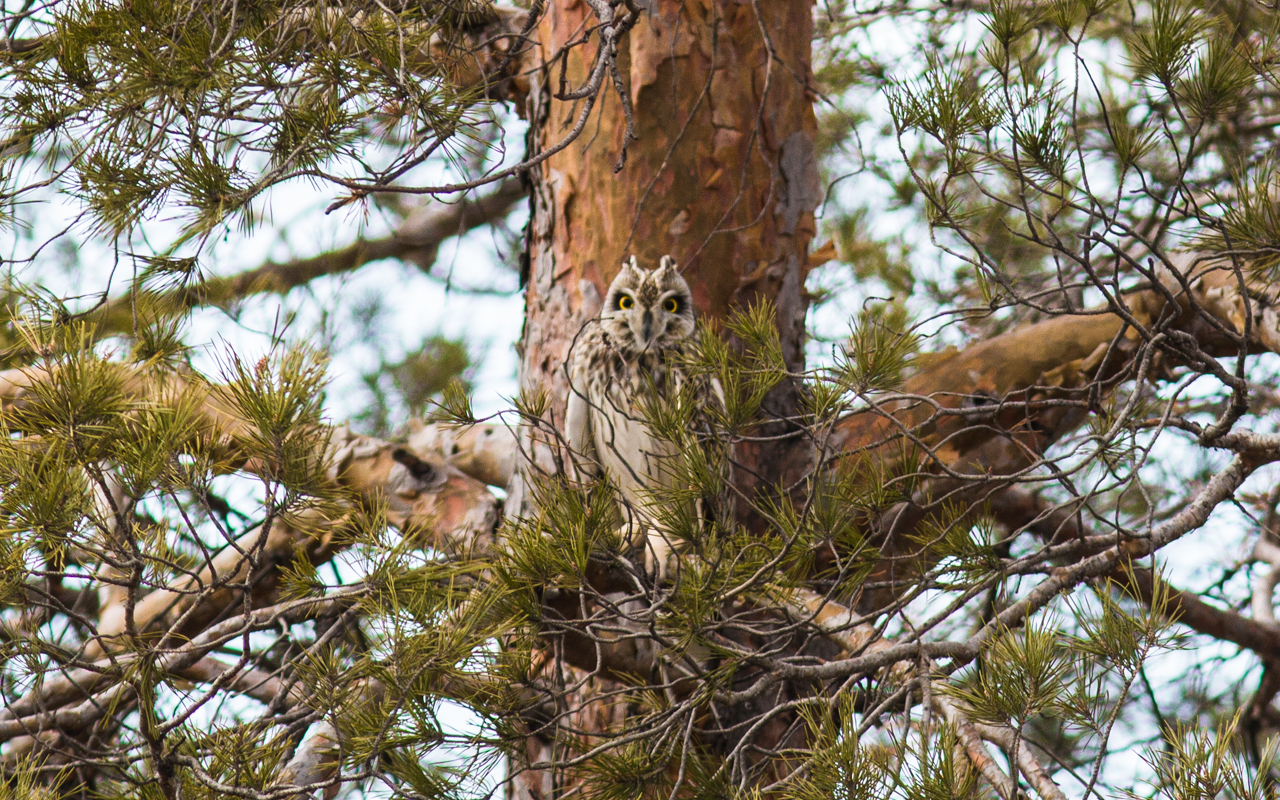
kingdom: Animalia
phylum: Chordata
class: Aves
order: Strigiformes
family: Strigidae
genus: Asio
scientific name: Asio flammeus
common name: Short-eared owl
